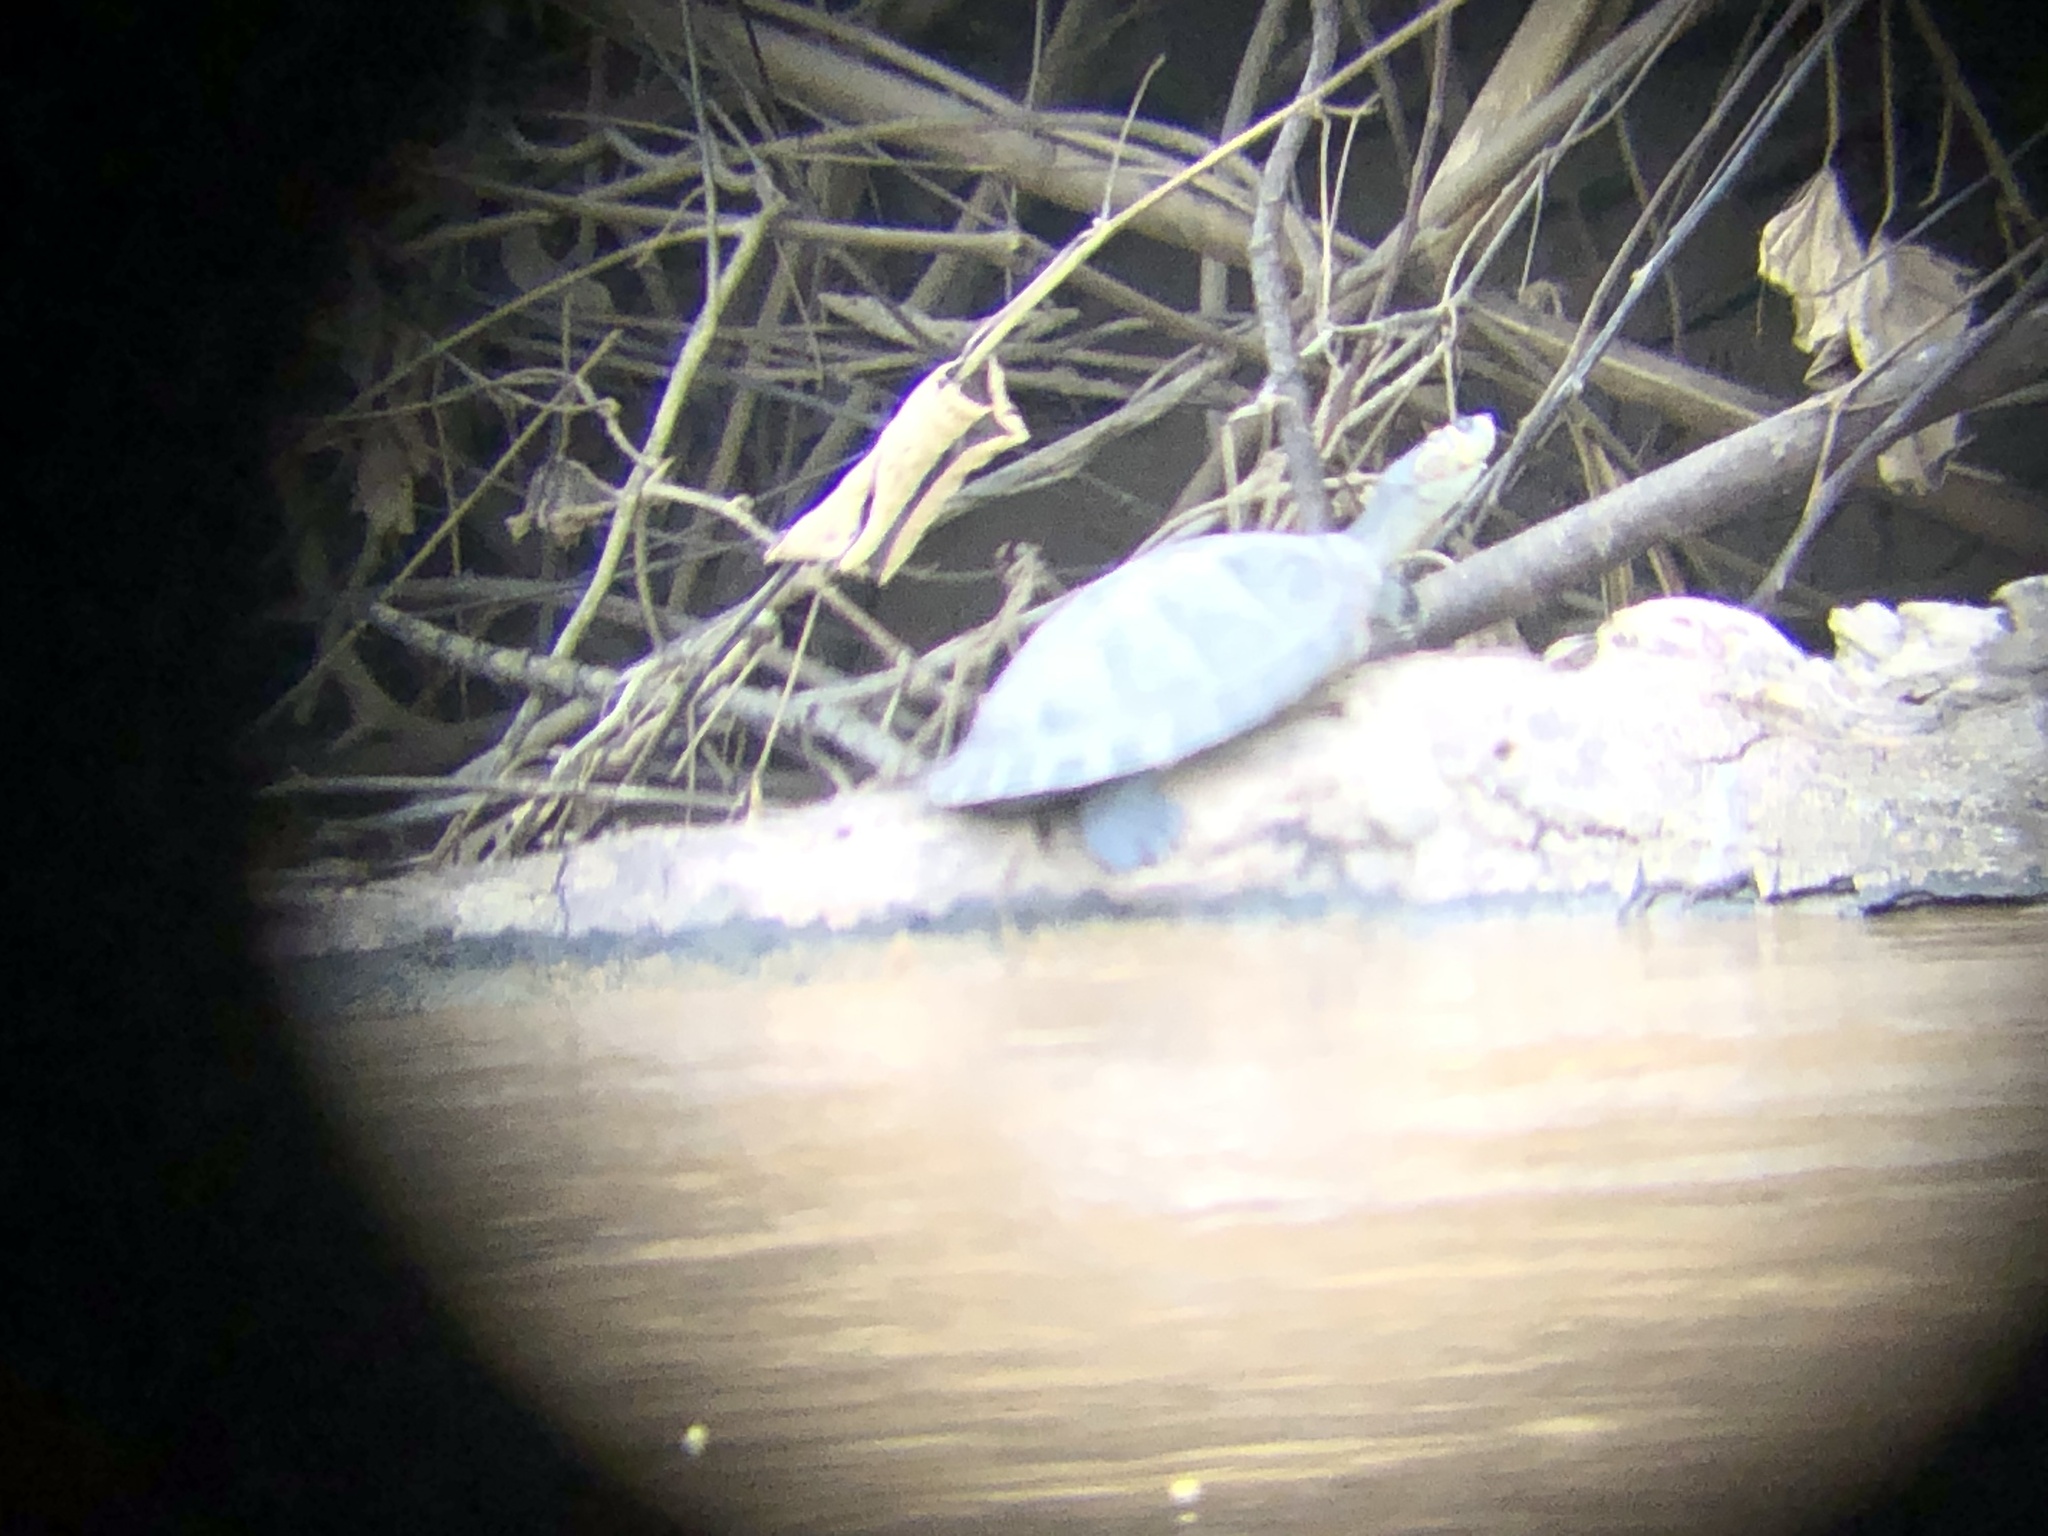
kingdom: Animalia
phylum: Chordata
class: Testudines
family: Podocnemididae
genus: Podocnemis
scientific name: Podocnemis unifilis
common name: Yellow-spotted amazon river turtle
